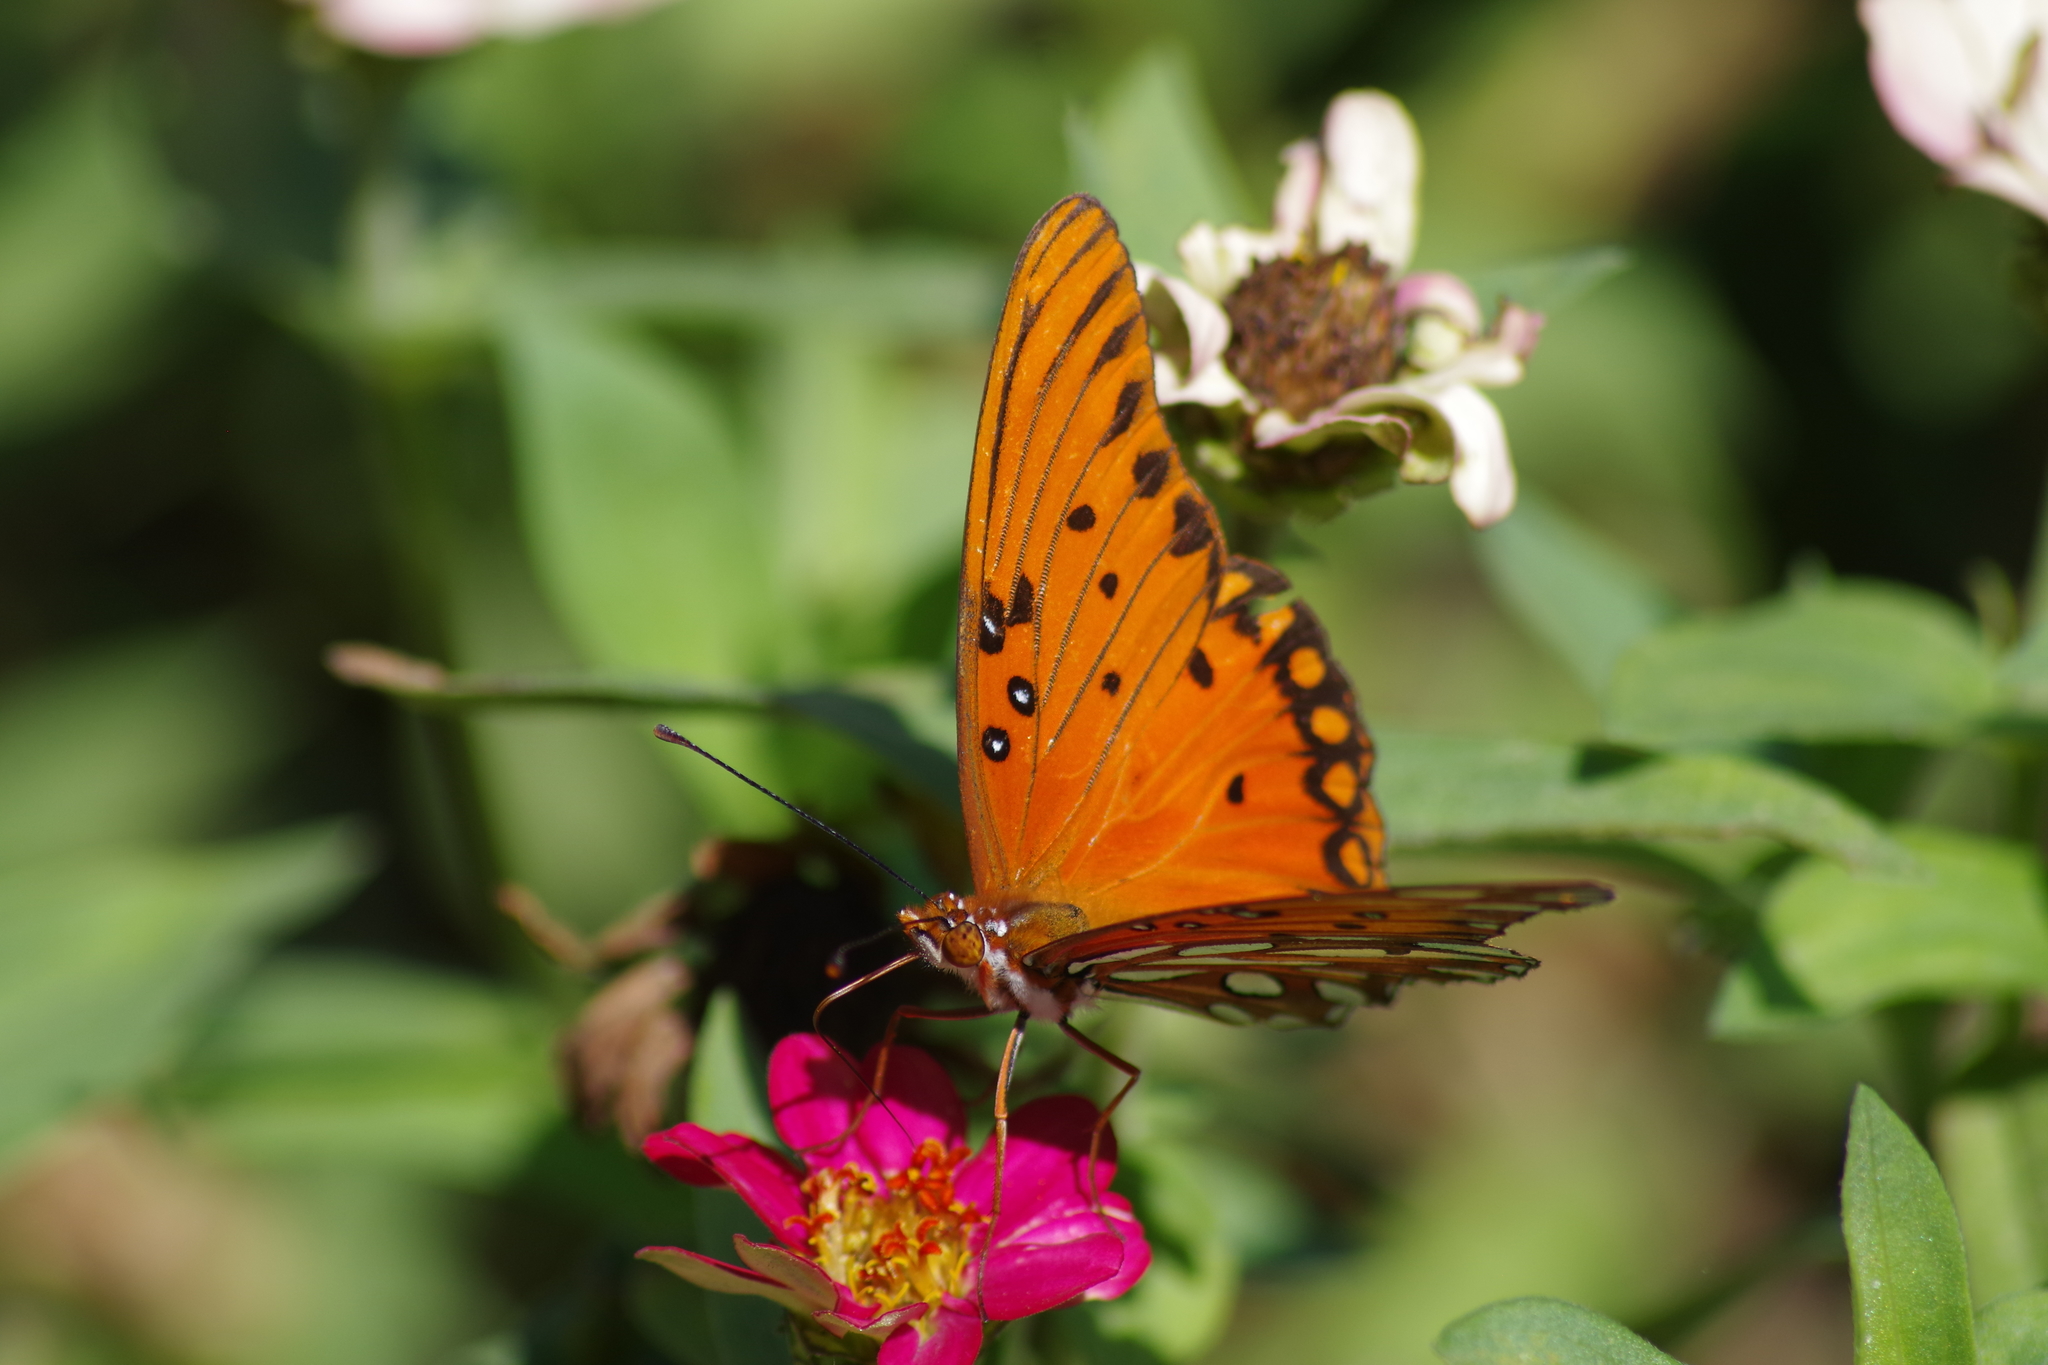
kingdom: Animalia
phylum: Arthropoda
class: Insecta
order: Lepidoptera
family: Nymphalidae
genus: Dione
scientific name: Dione vanillae
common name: Gulf fritillary
